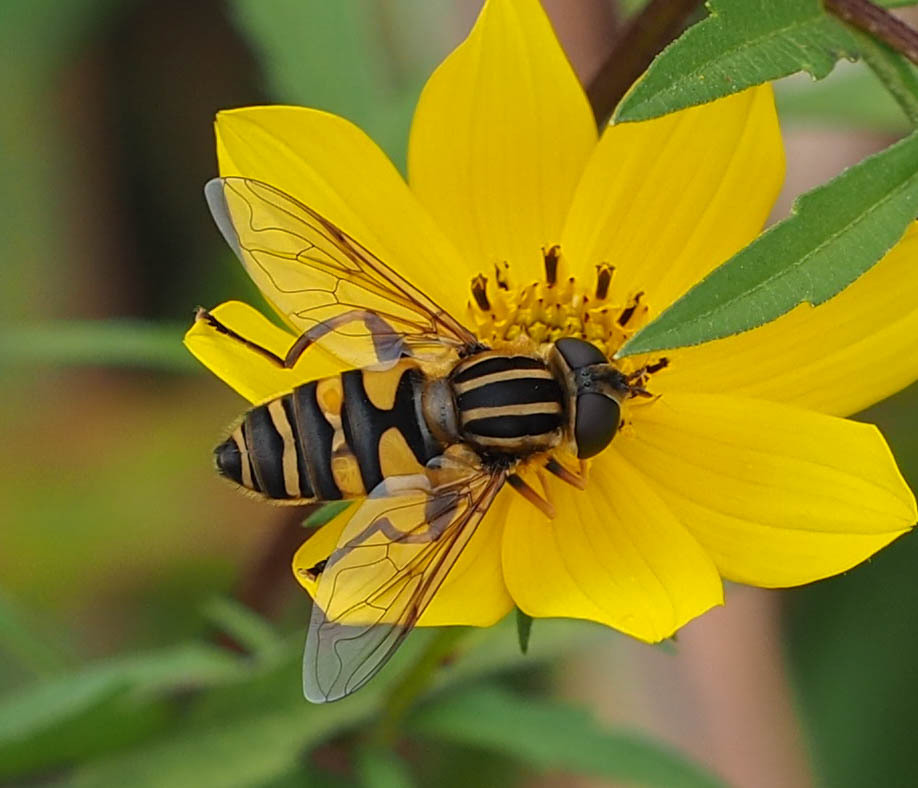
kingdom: Animalia
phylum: Arthropoda
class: Insecta
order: Diptera
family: Syrphidae
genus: Helophilus
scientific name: Helophilus fasciatus
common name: Narrow-headed marsh fly
